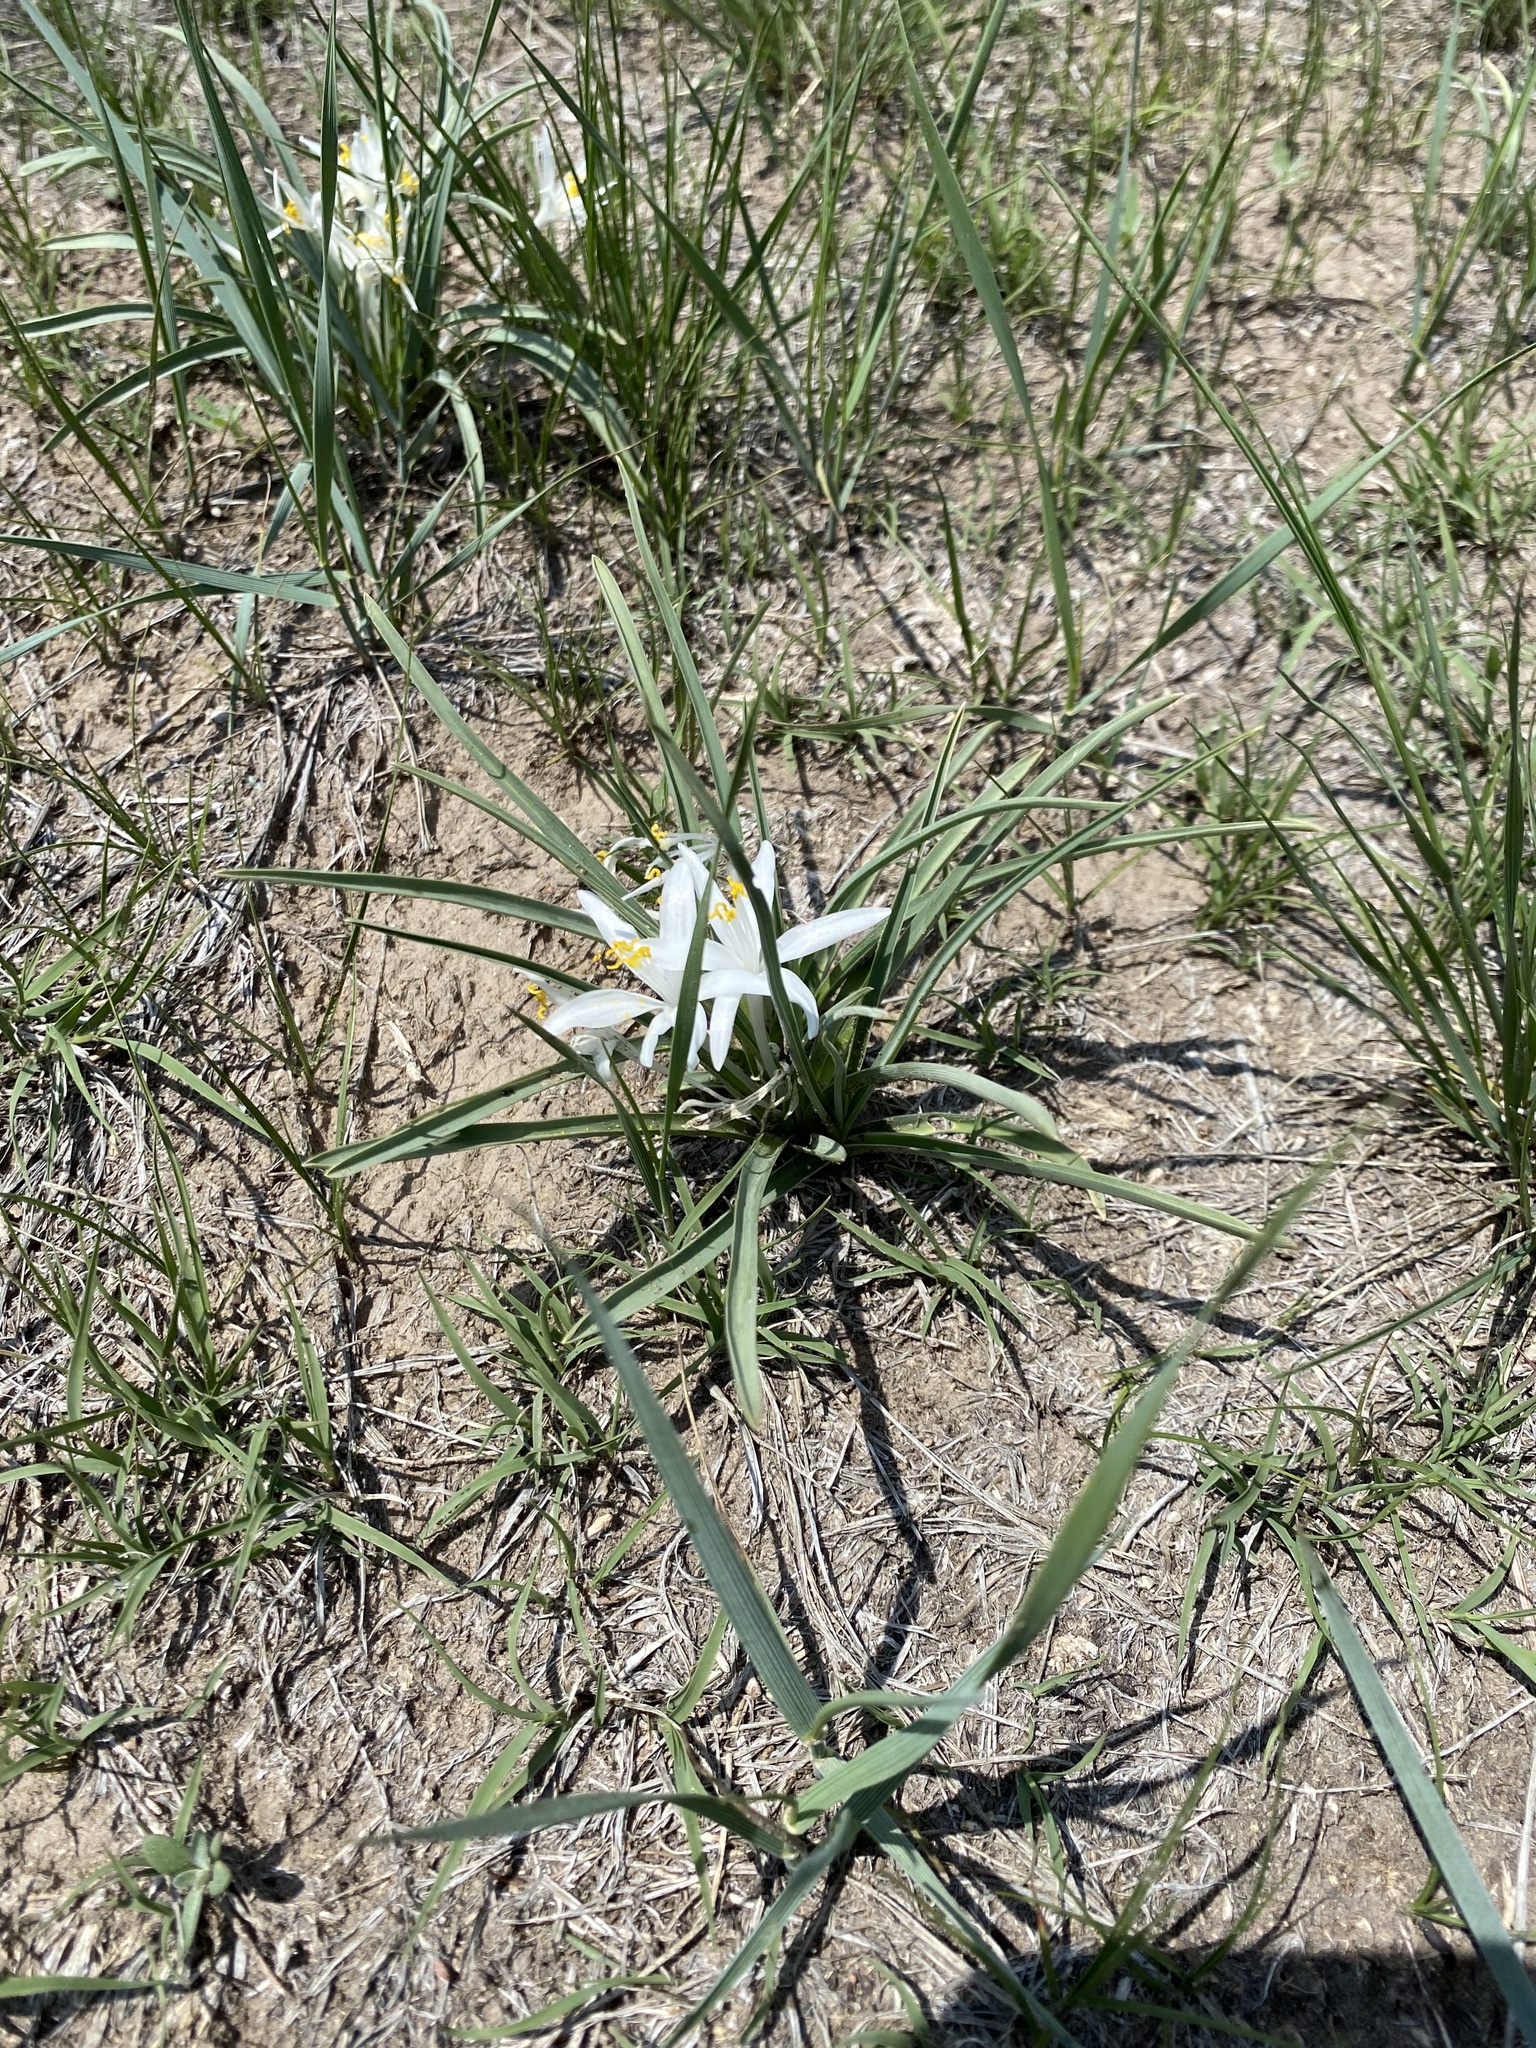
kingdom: Plantae
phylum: Tracheophyta
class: Liliopsida
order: Asparagales
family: Asparagaceae
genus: Leucocrinum
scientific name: Leucocrinum montanum
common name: Mountain-lily
